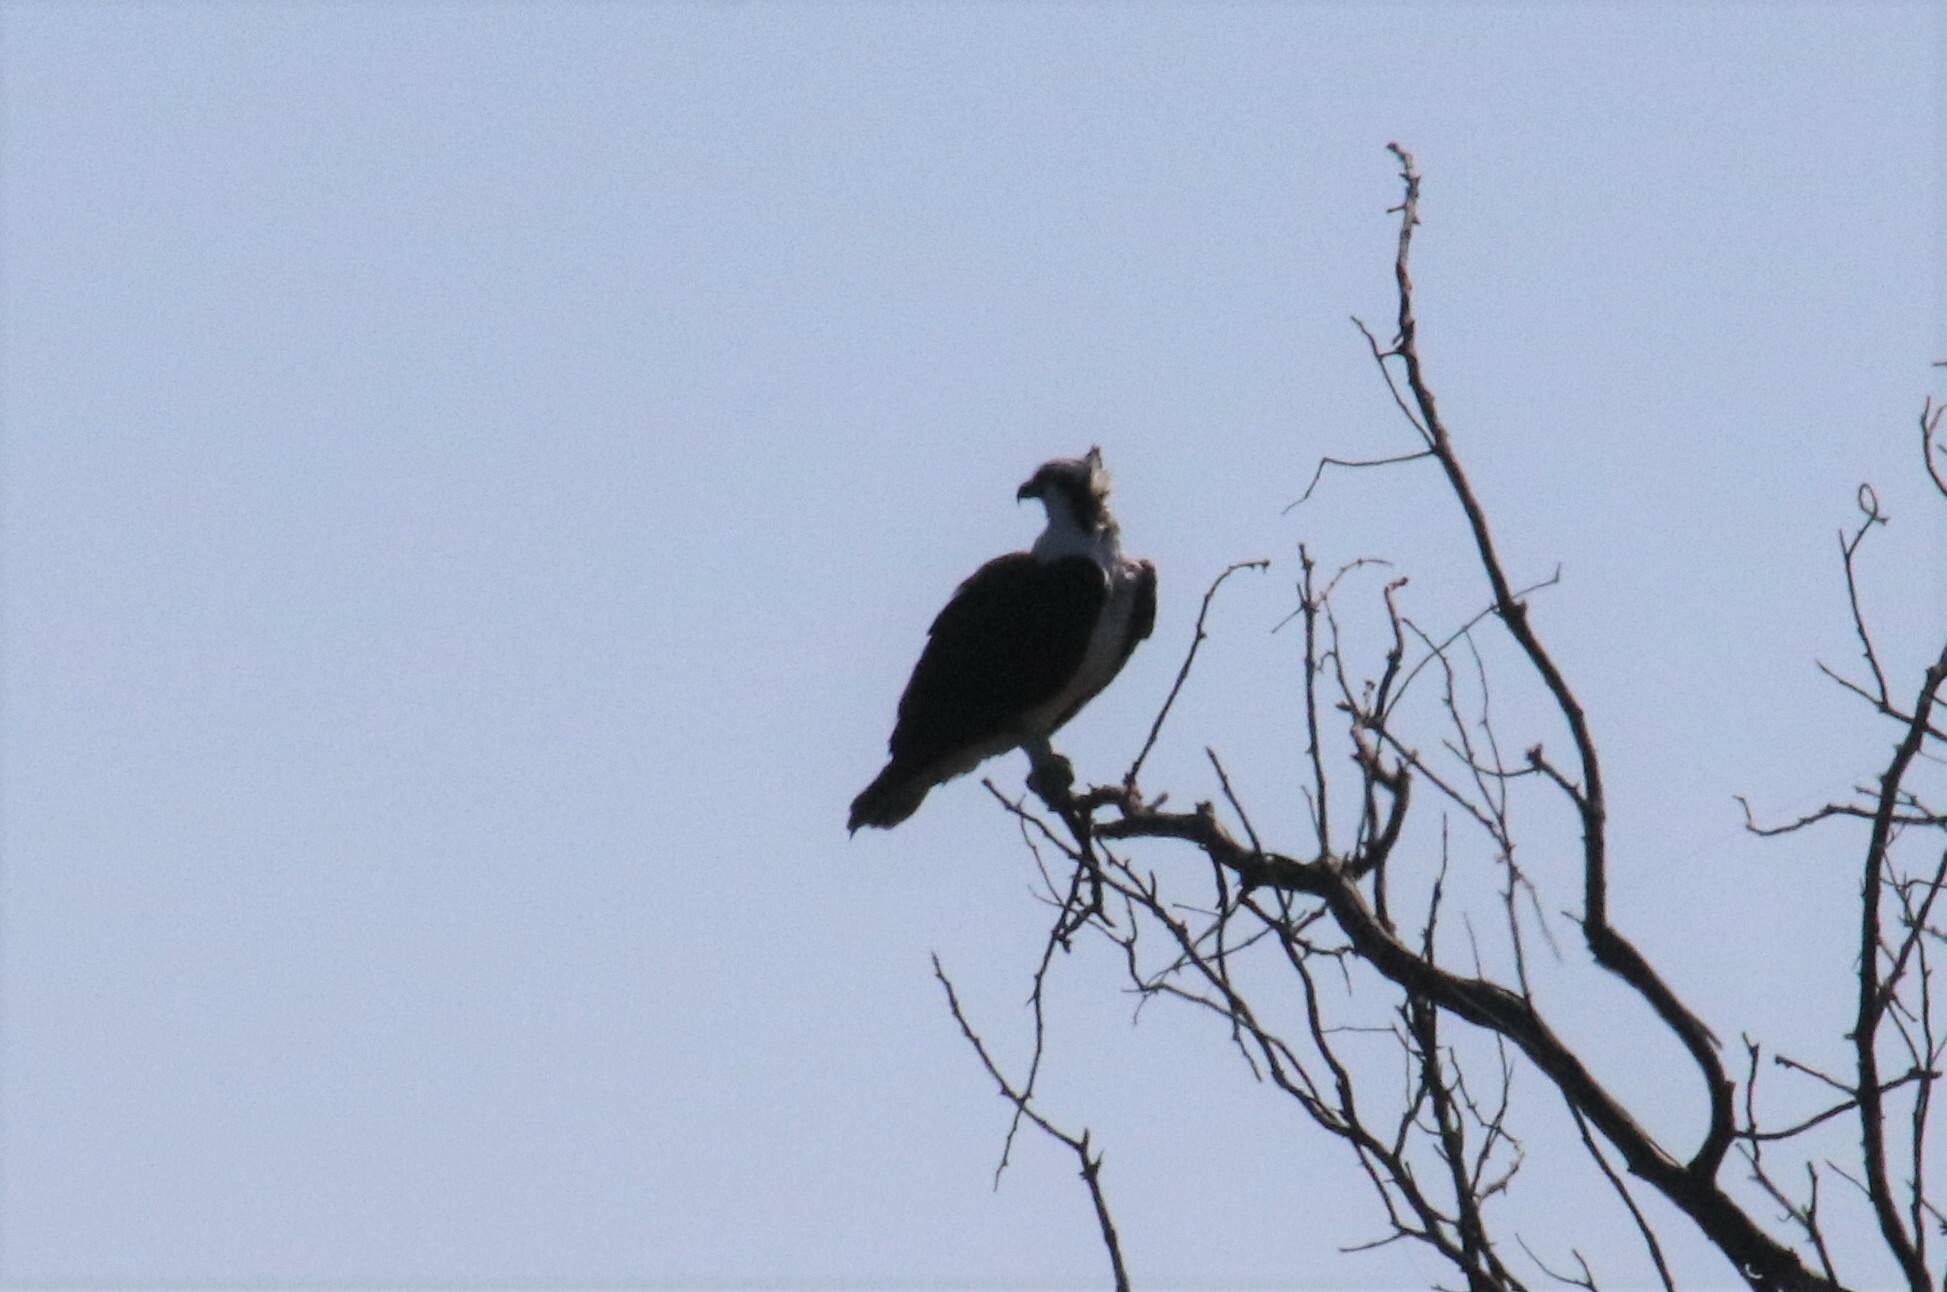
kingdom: Animalia
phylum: Chordata
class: Aves
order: Accipitriformes
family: Pandionidae
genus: Pandion
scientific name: Pandion haliaetus
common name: Osprey
